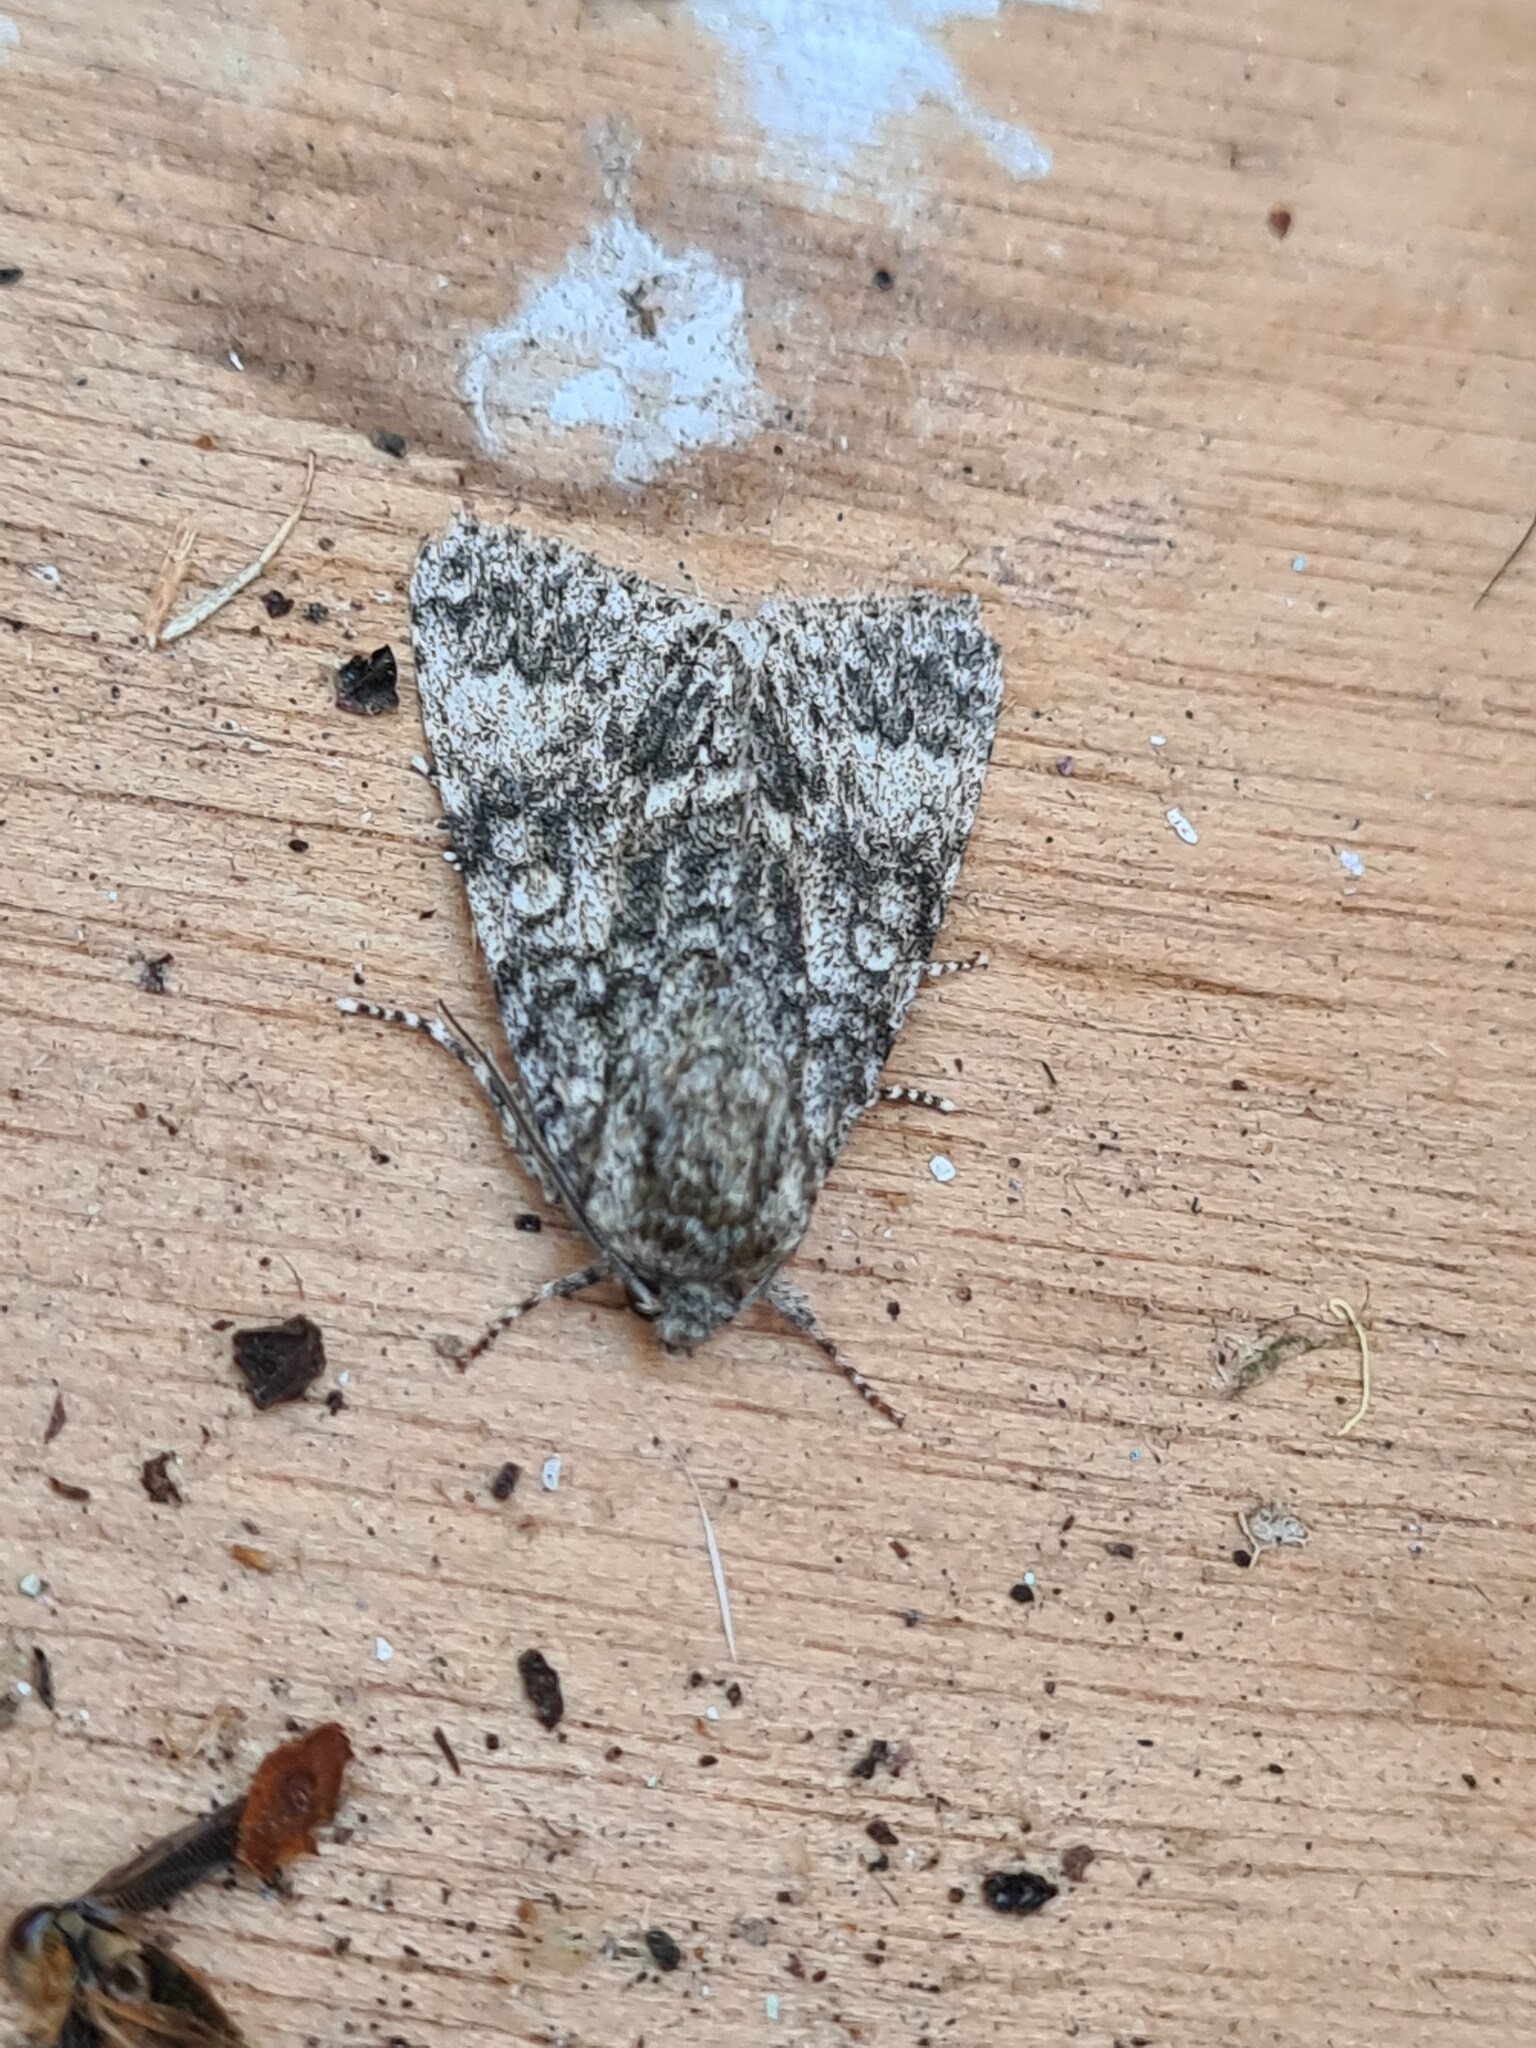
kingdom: Animalia
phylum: Arthropoda
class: Insecta
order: Lepidoptera
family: Noctuidae
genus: Acronicta
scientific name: Acronicta megacephala
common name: Poplar grey
